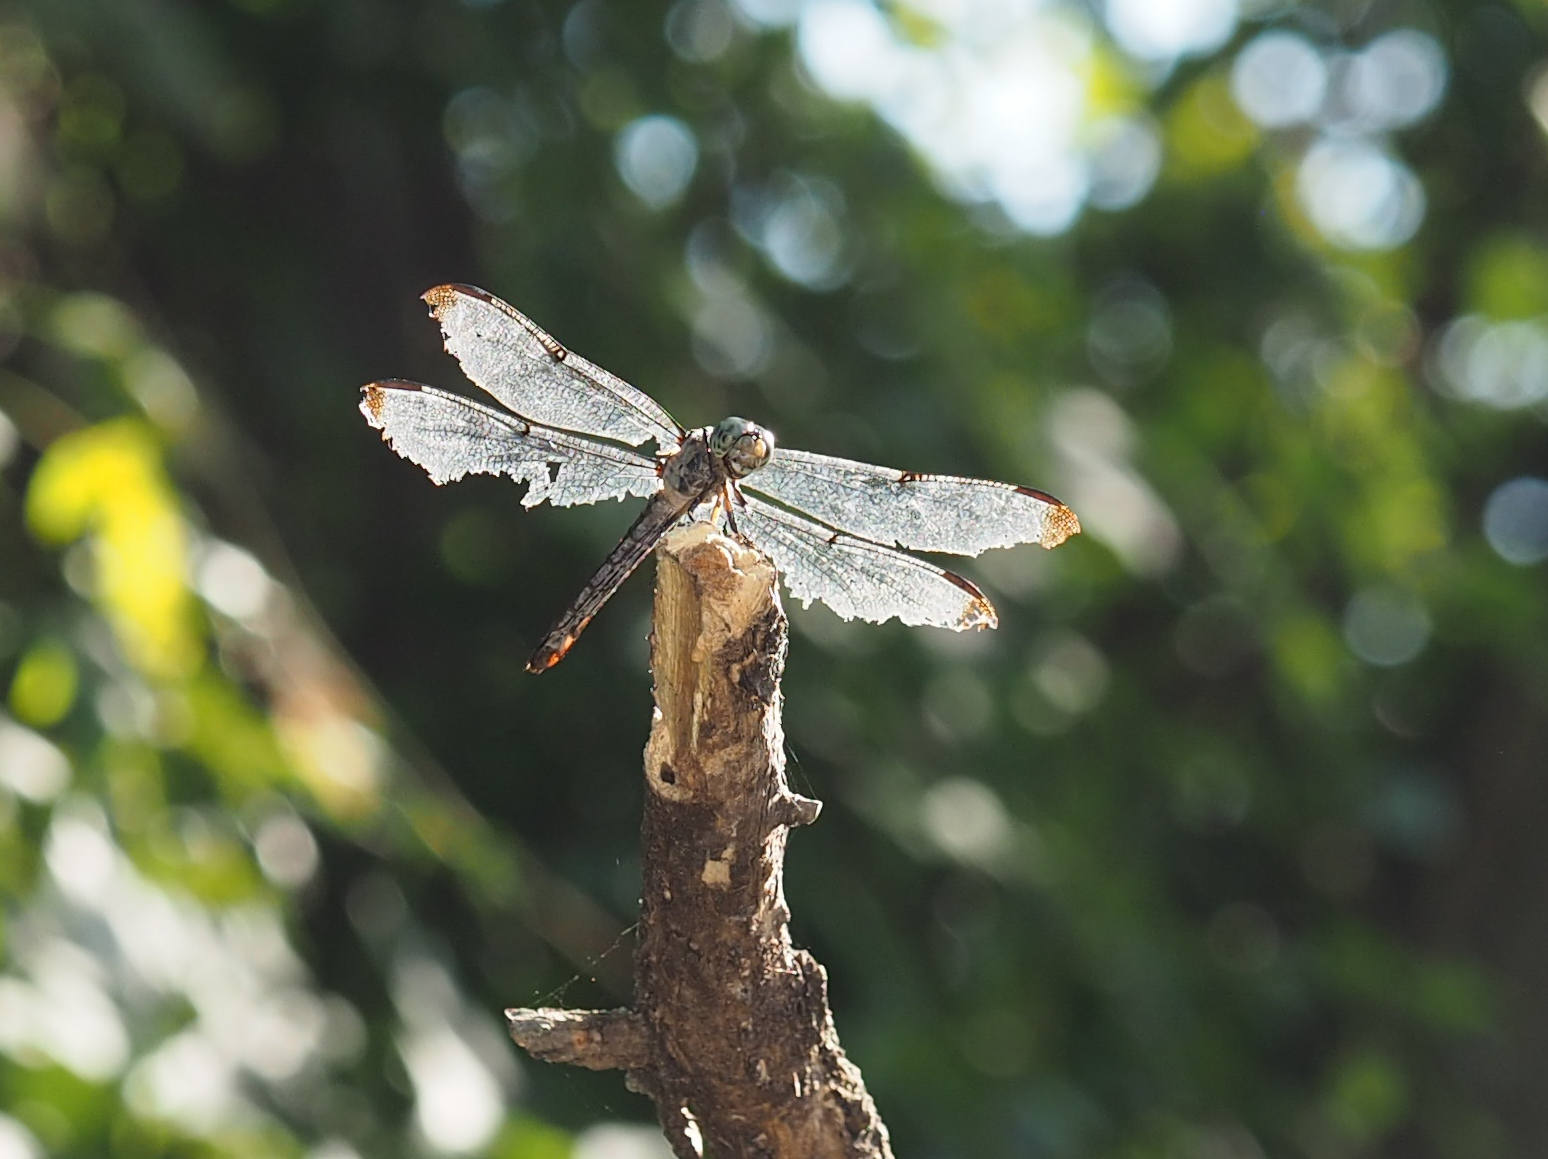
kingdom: Animalia
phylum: Arthropoda
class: Insecta
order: Odonata
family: Libellulidae
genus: Libellula
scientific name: Libellula vibrans
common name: Great blue skimmer
